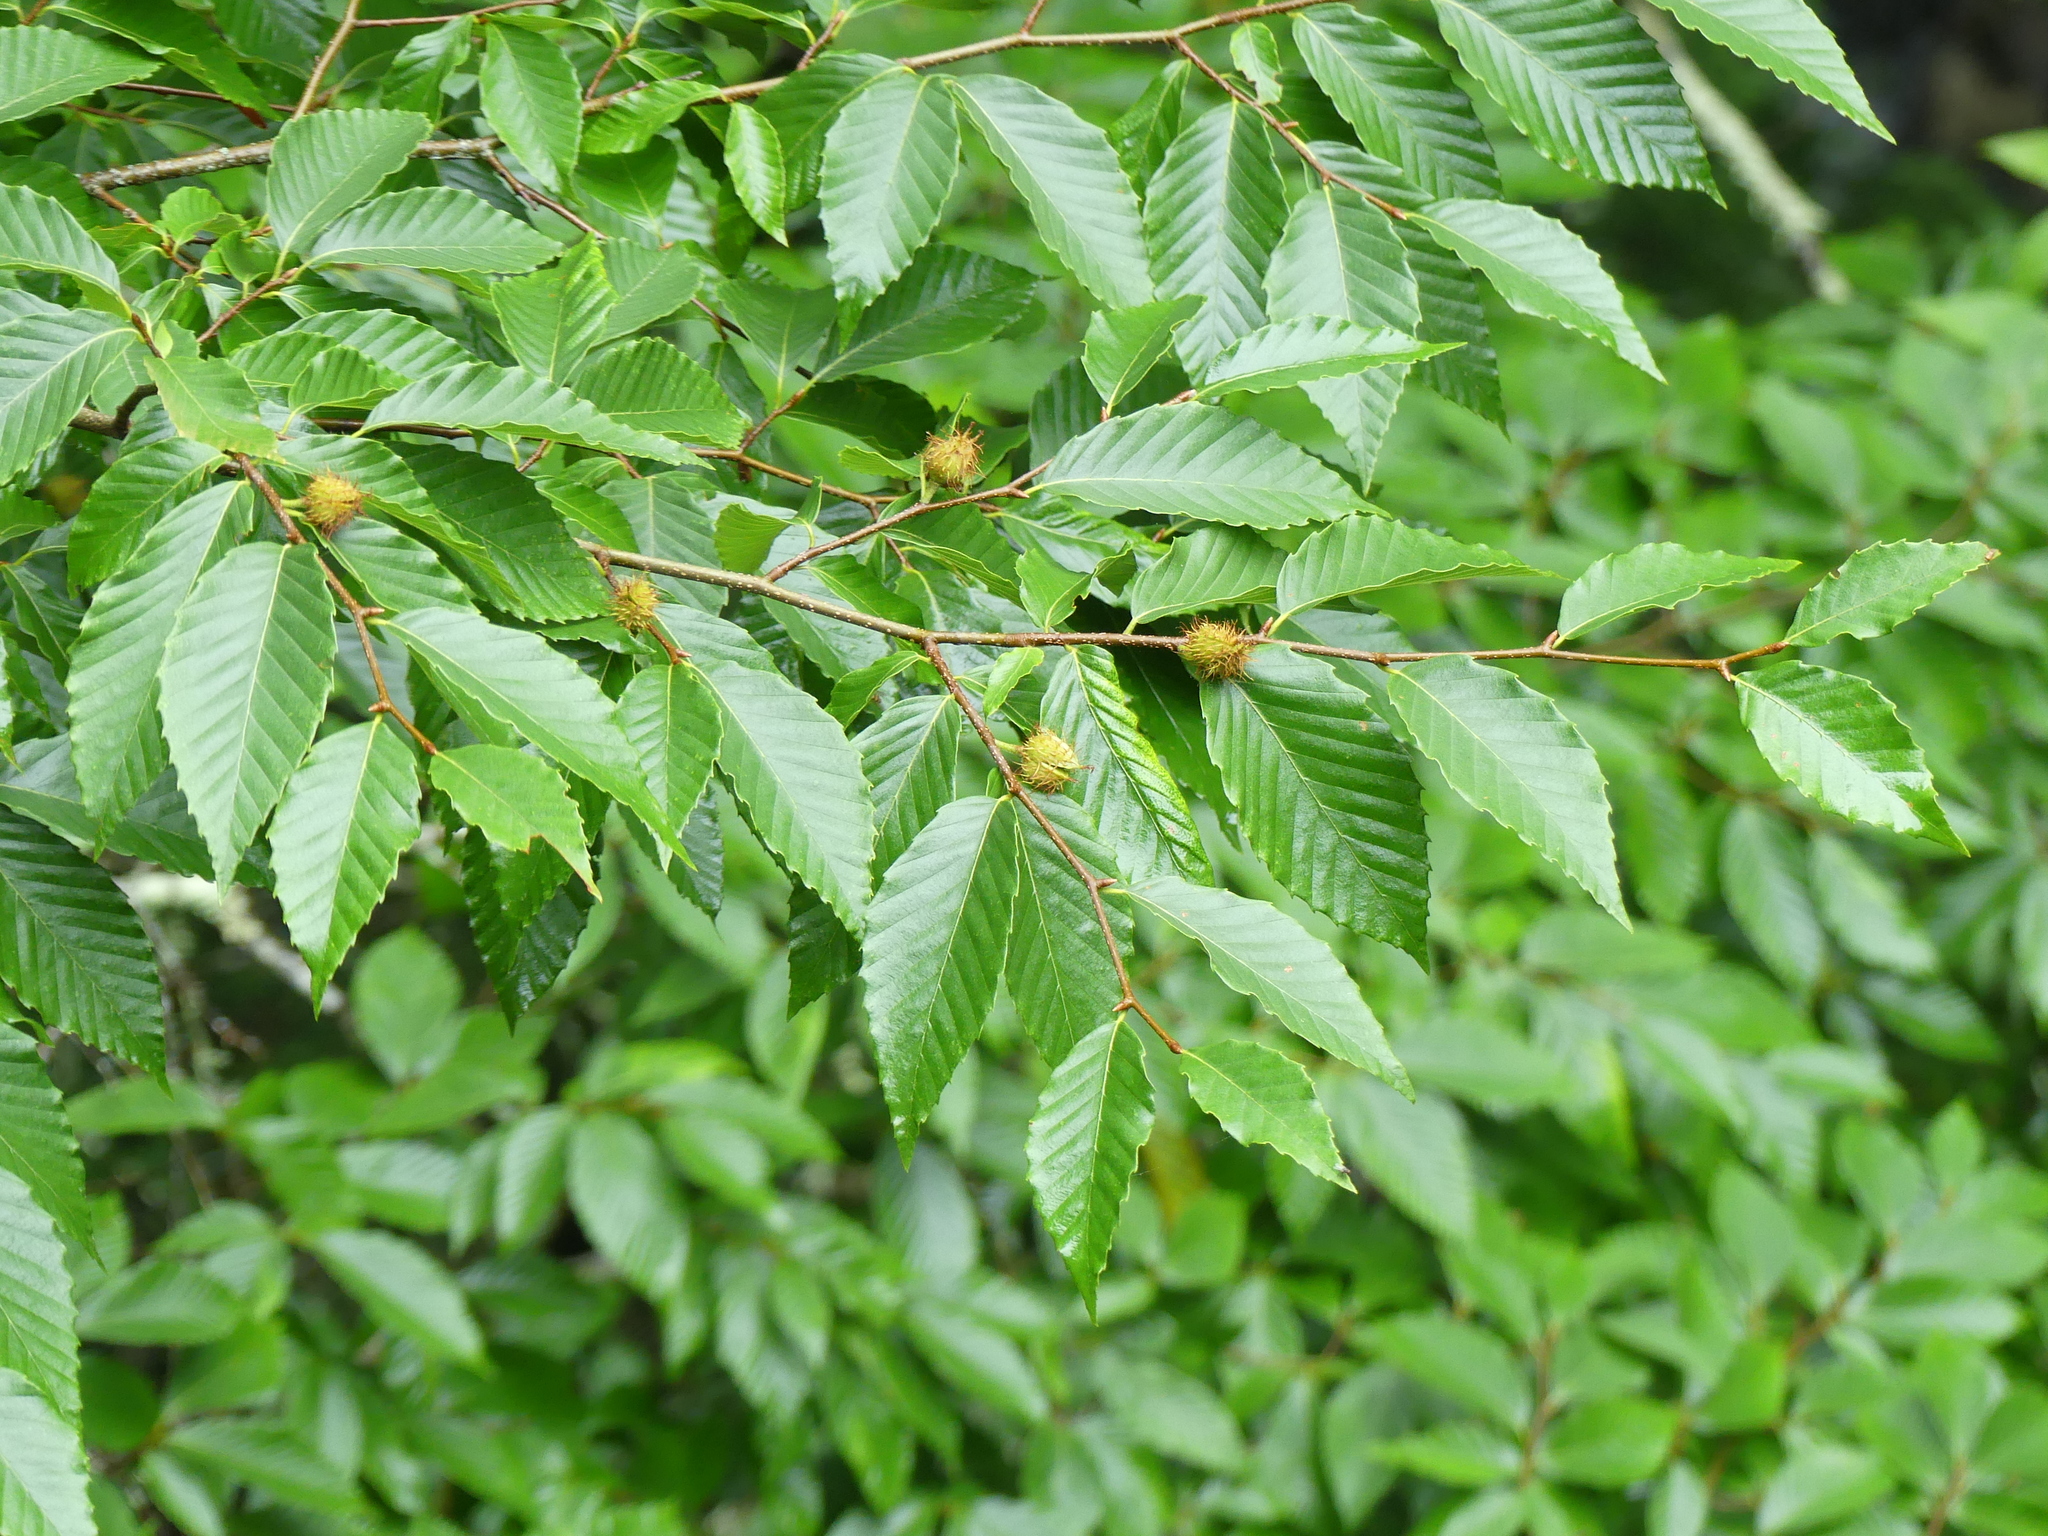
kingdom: Plantae
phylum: Tracheophyta
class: Magnoliopsida
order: Fagales
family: Fagaceae
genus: Fagus
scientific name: Fagus grandifolia
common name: American beech
